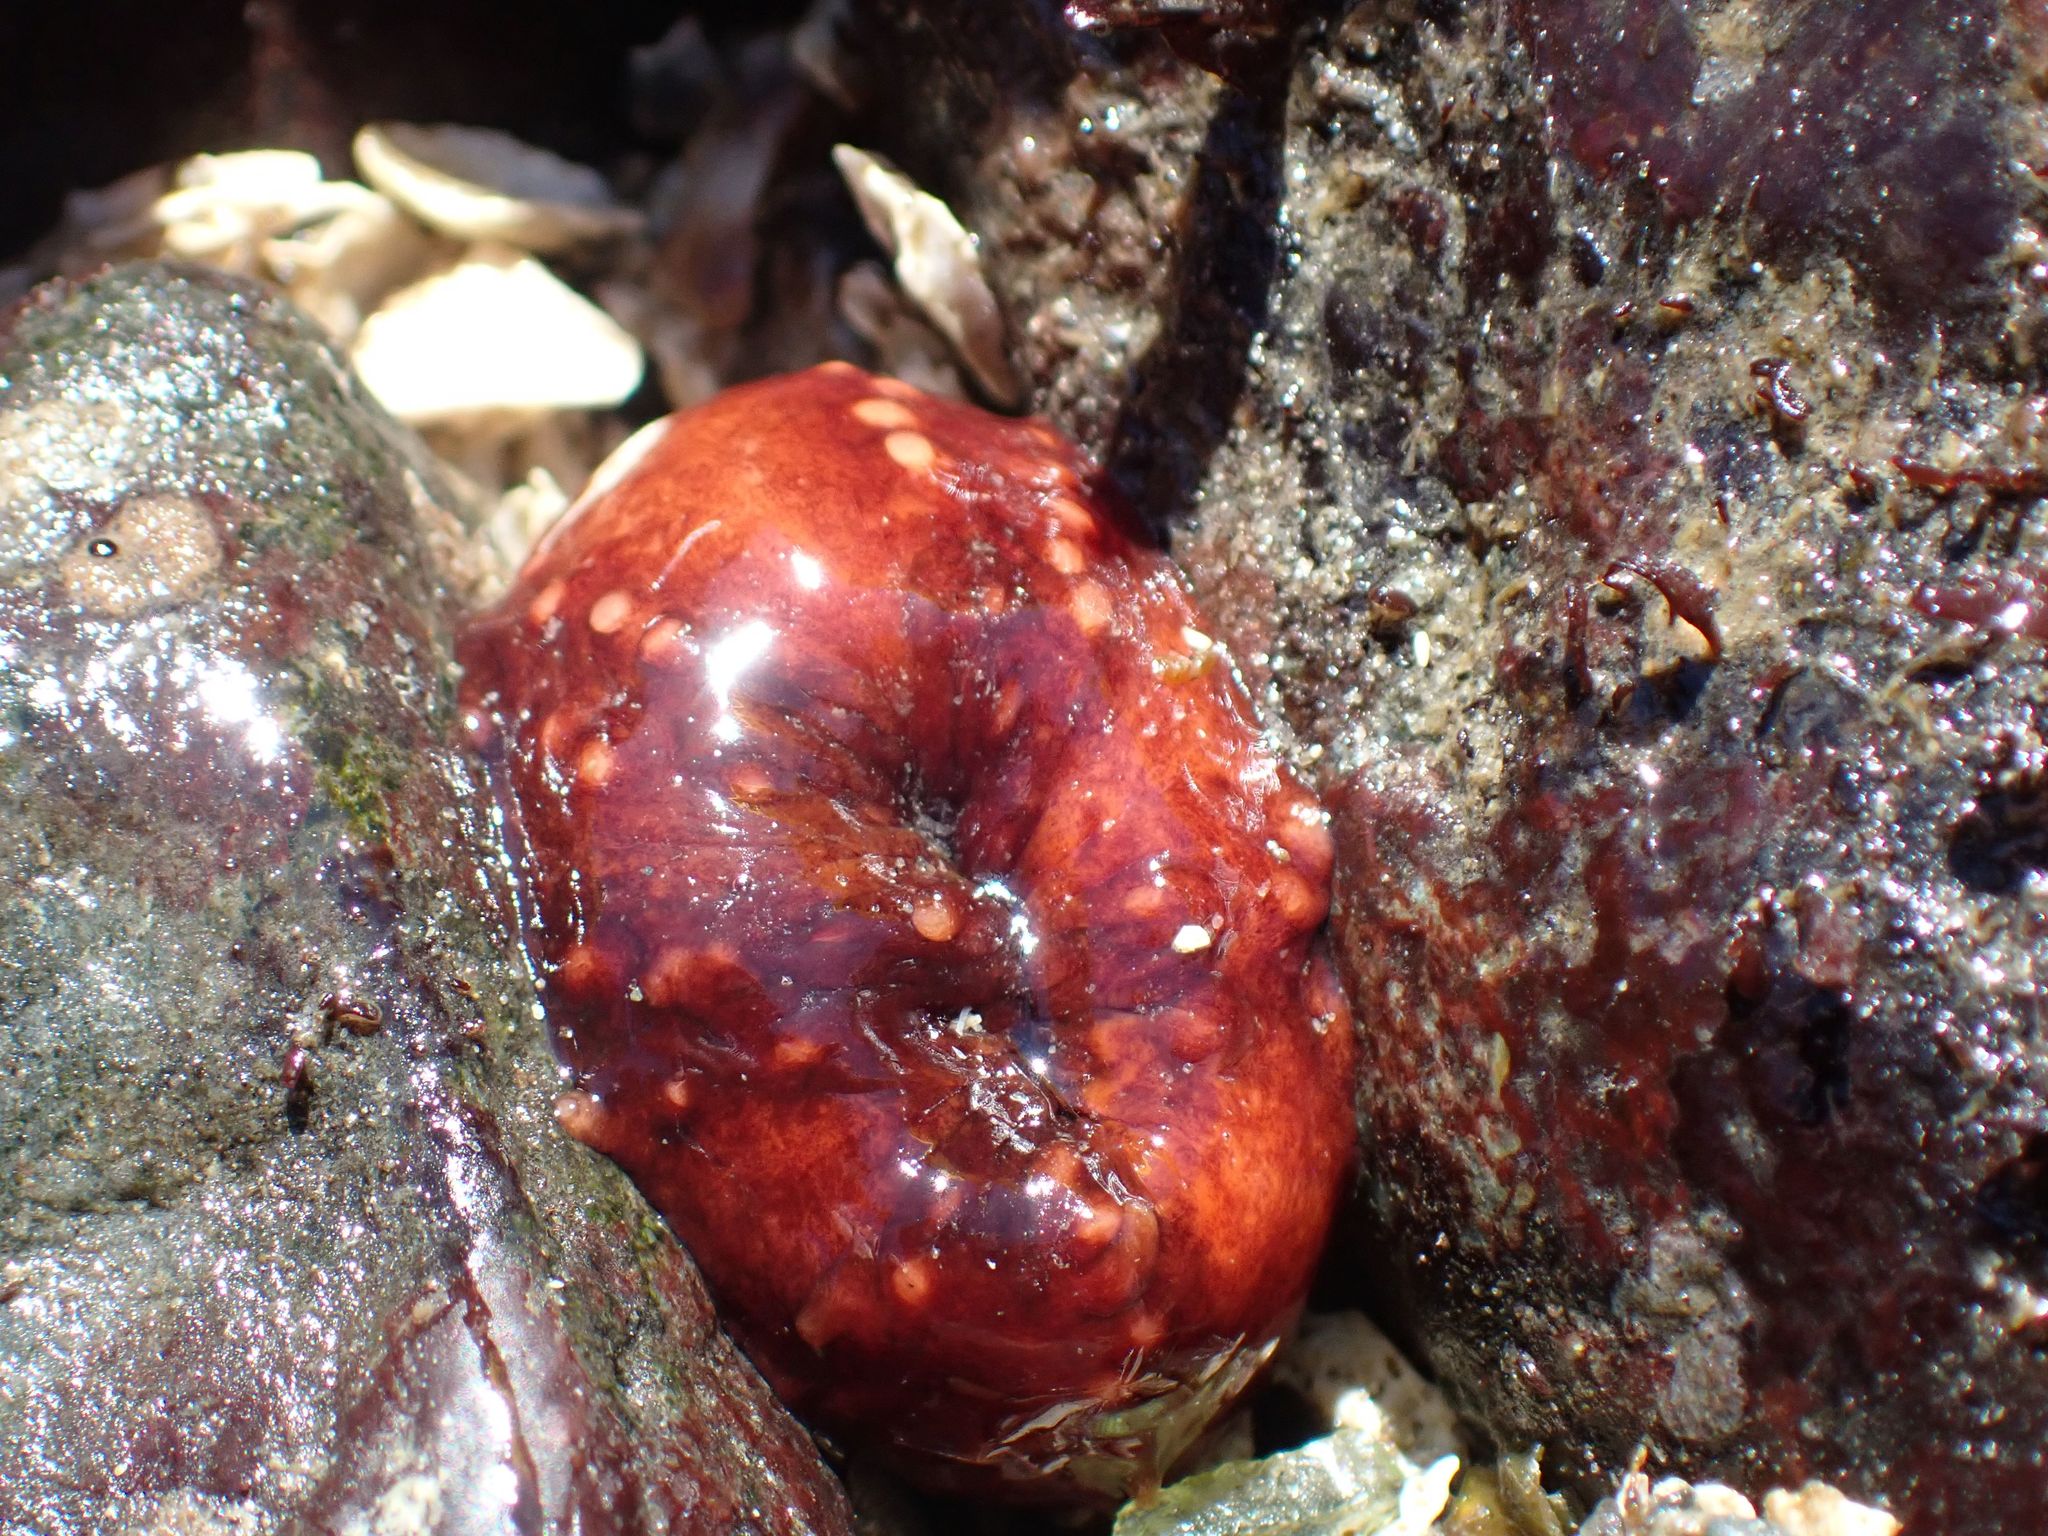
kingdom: Animalia
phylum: Echinodermata
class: Holothuroidea
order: Dendrochirotida
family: Cucumariidae
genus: Cucumaria
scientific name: Cucumaria miniata
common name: Orange sea cucumber
